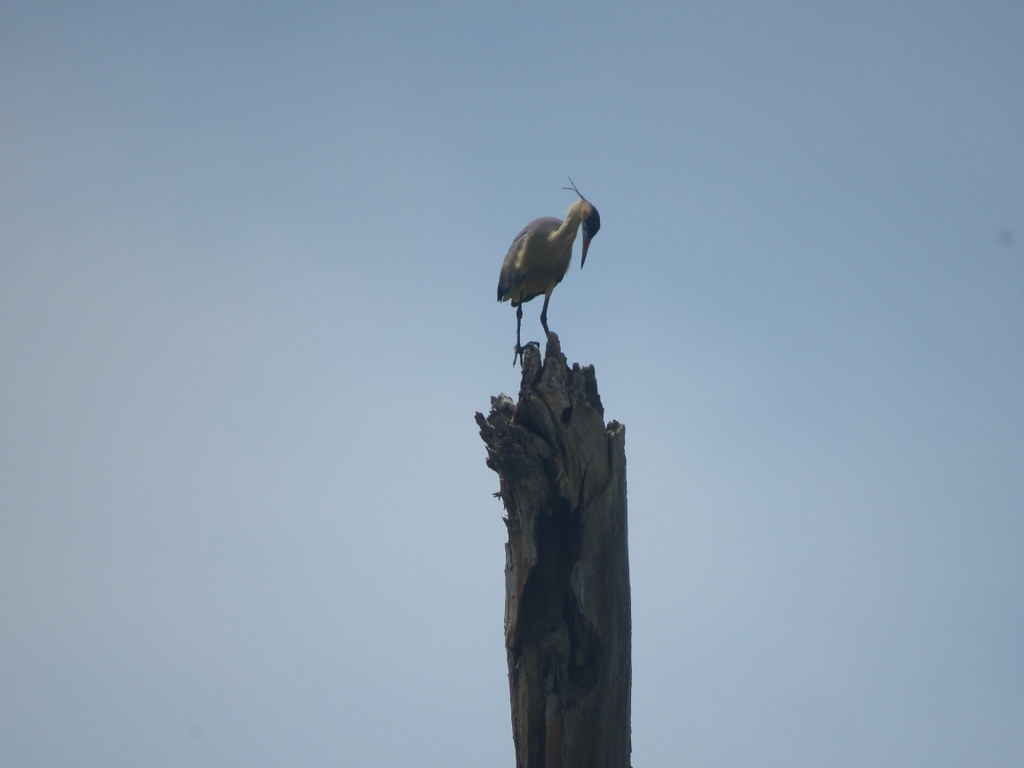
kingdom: Animalia
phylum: Chordata
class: Aves
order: Pelecaniformes
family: Ardeidae
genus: Syrigma
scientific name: Syrigma sibilatrix
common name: Whistling heron
